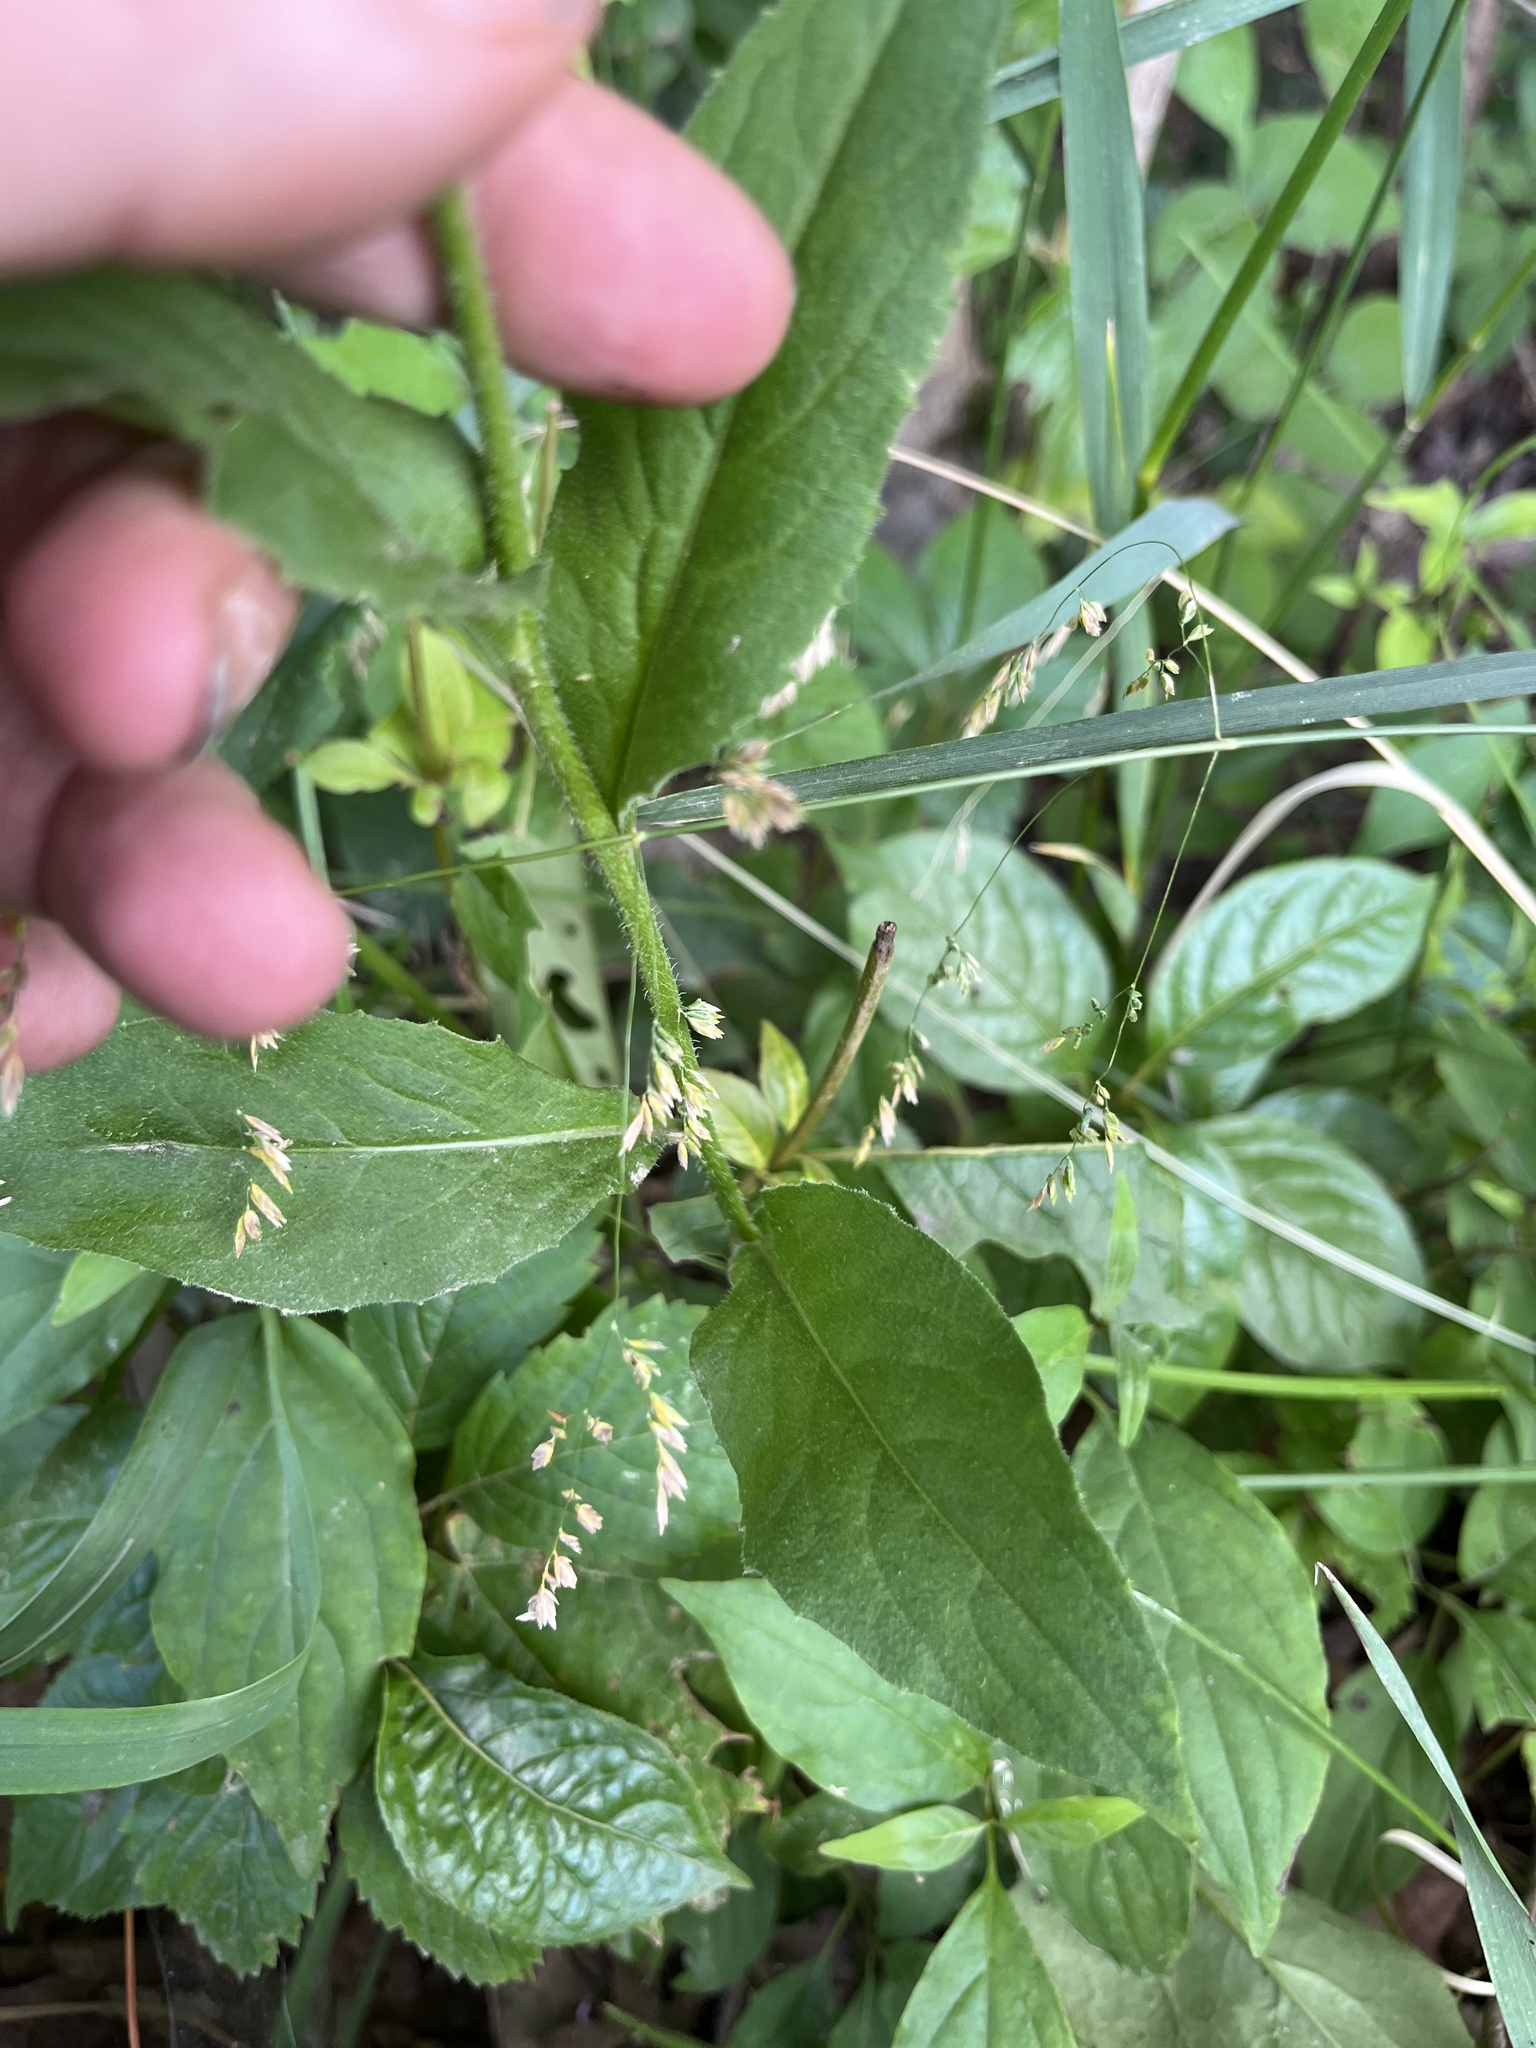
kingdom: Plantae
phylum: Tracheophyta
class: Magnoliopsida
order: Brassicales
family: Brassicaceae
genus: Hesperis
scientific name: Hesperis matronalis
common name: Dame's-violet
